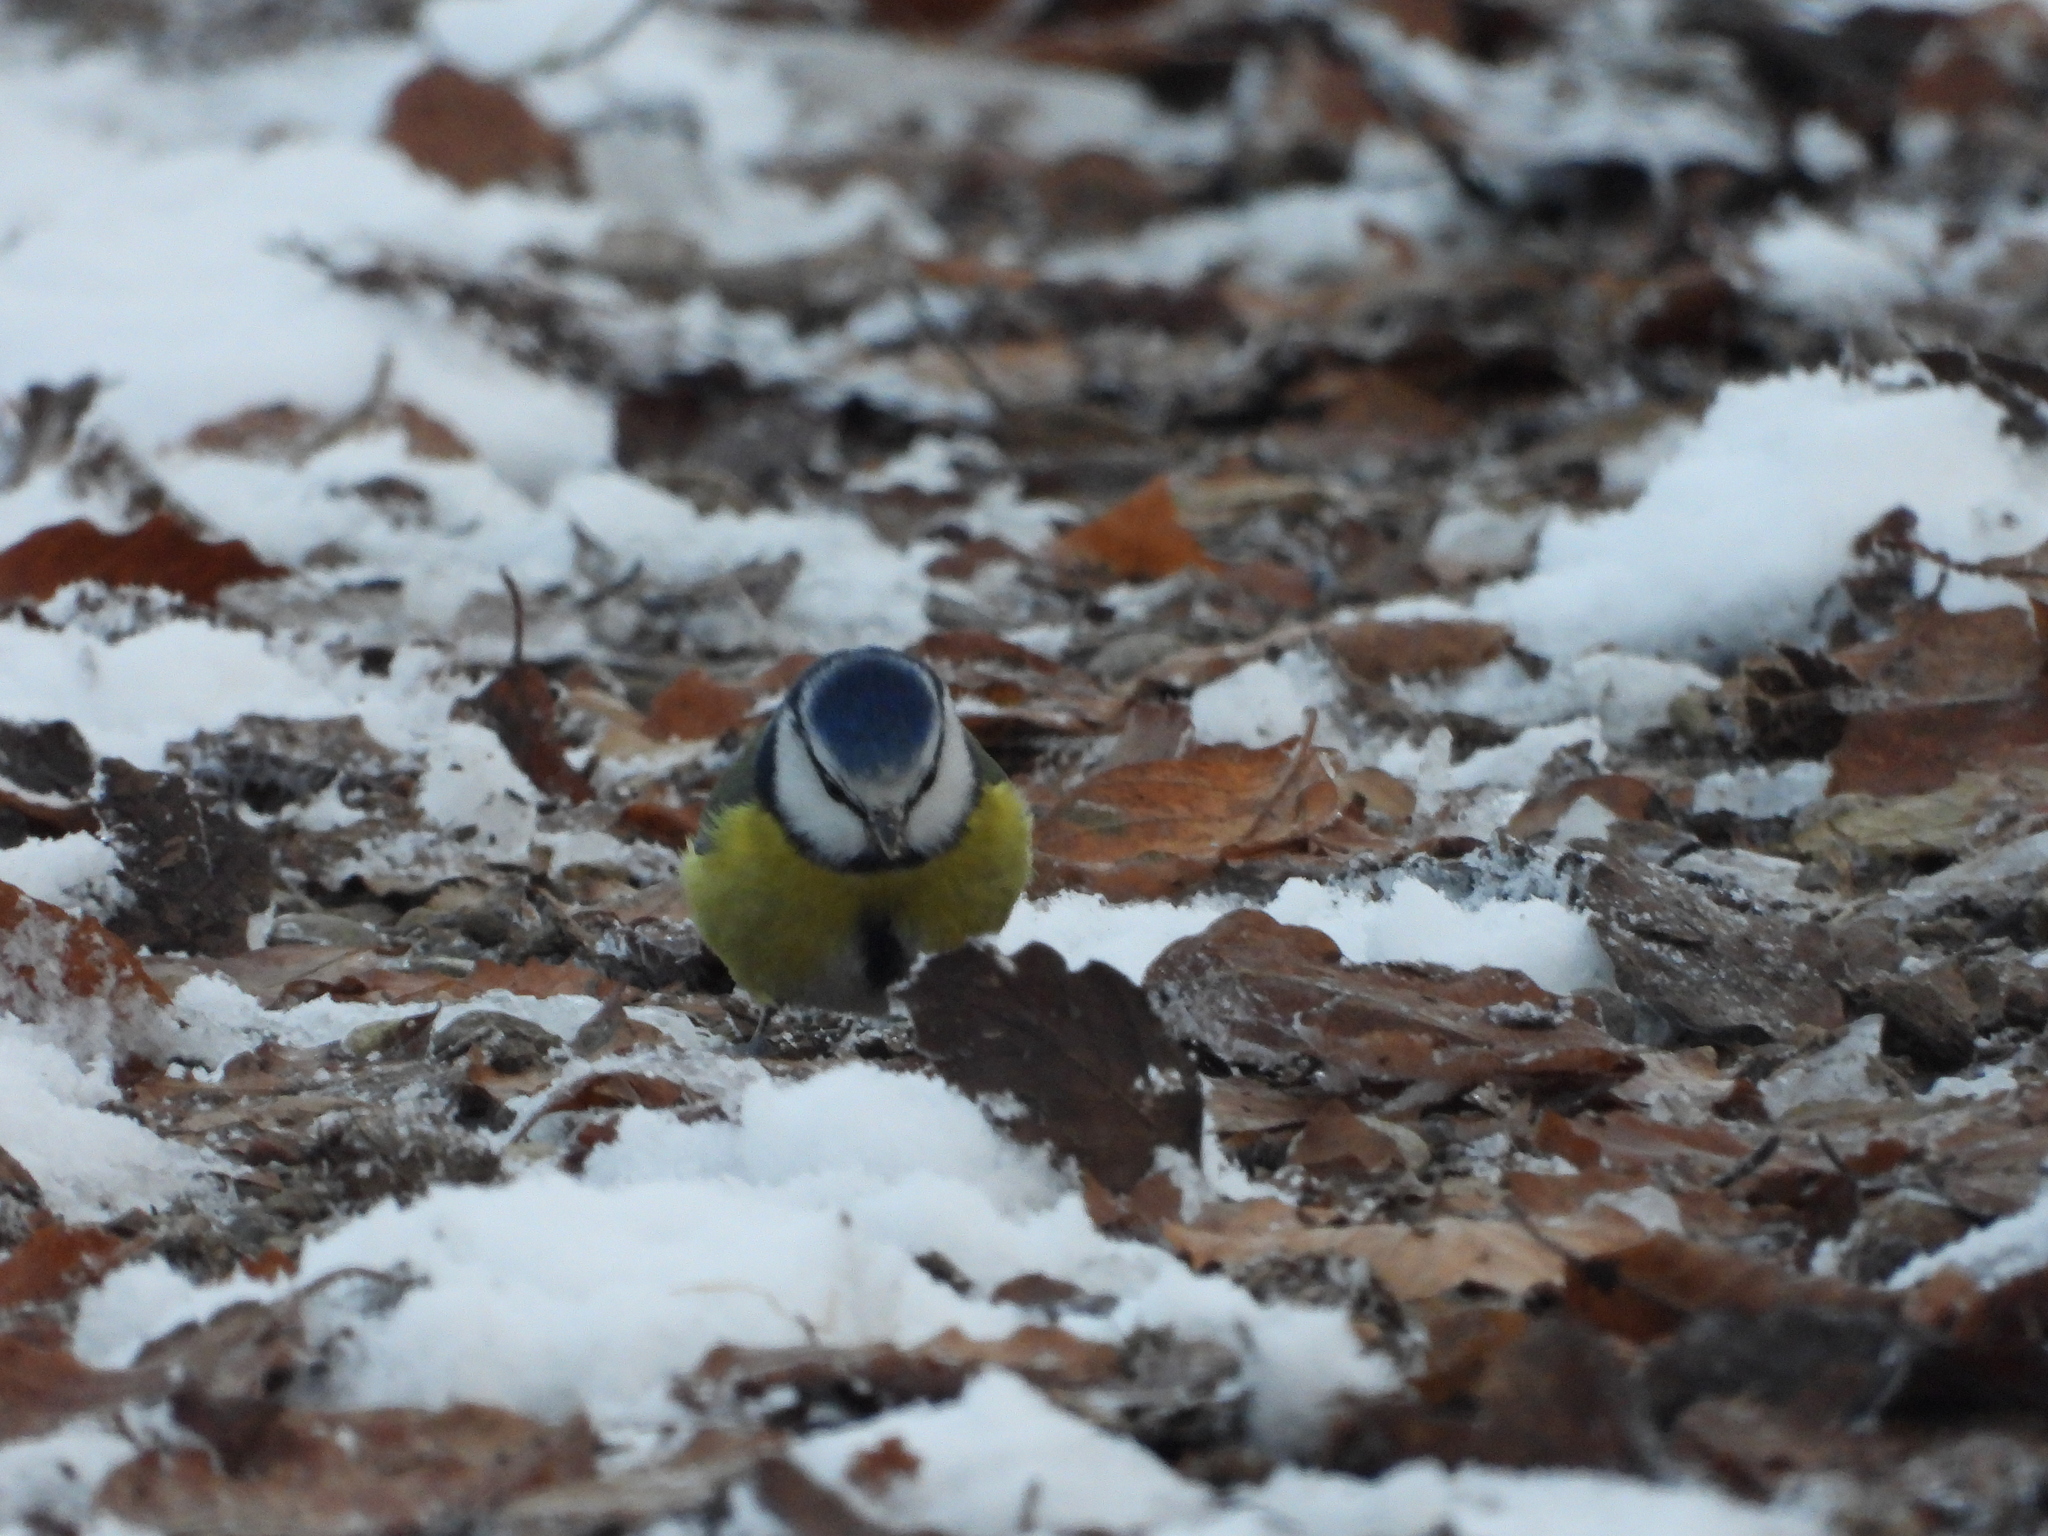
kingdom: Animalia
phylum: Chordata
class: Aves
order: Passeriformes
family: Paridae
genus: Cyanistes
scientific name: Cyanistes caeruleus
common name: Eurasian blue tit
